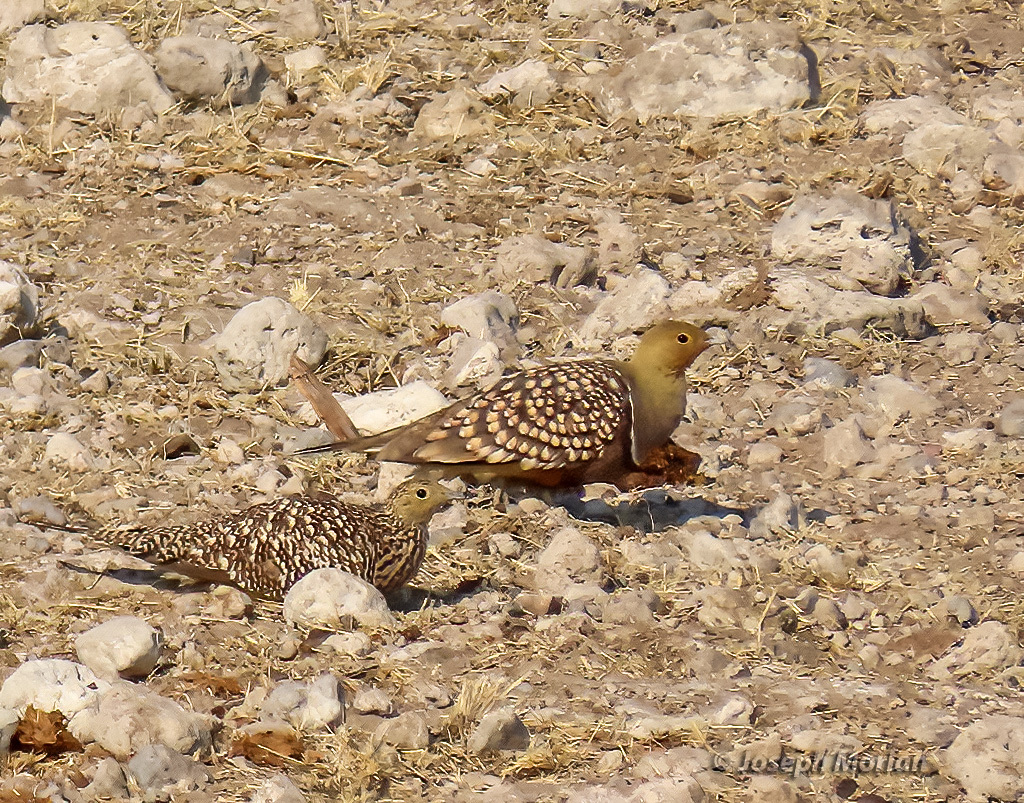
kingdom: Animalia
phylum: Chordata
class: Aves
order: Pteroclidiformes
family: Pteroclididae
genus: Pterocles
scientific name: Pterocles namaqua
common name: Namaqua sandgrouse
